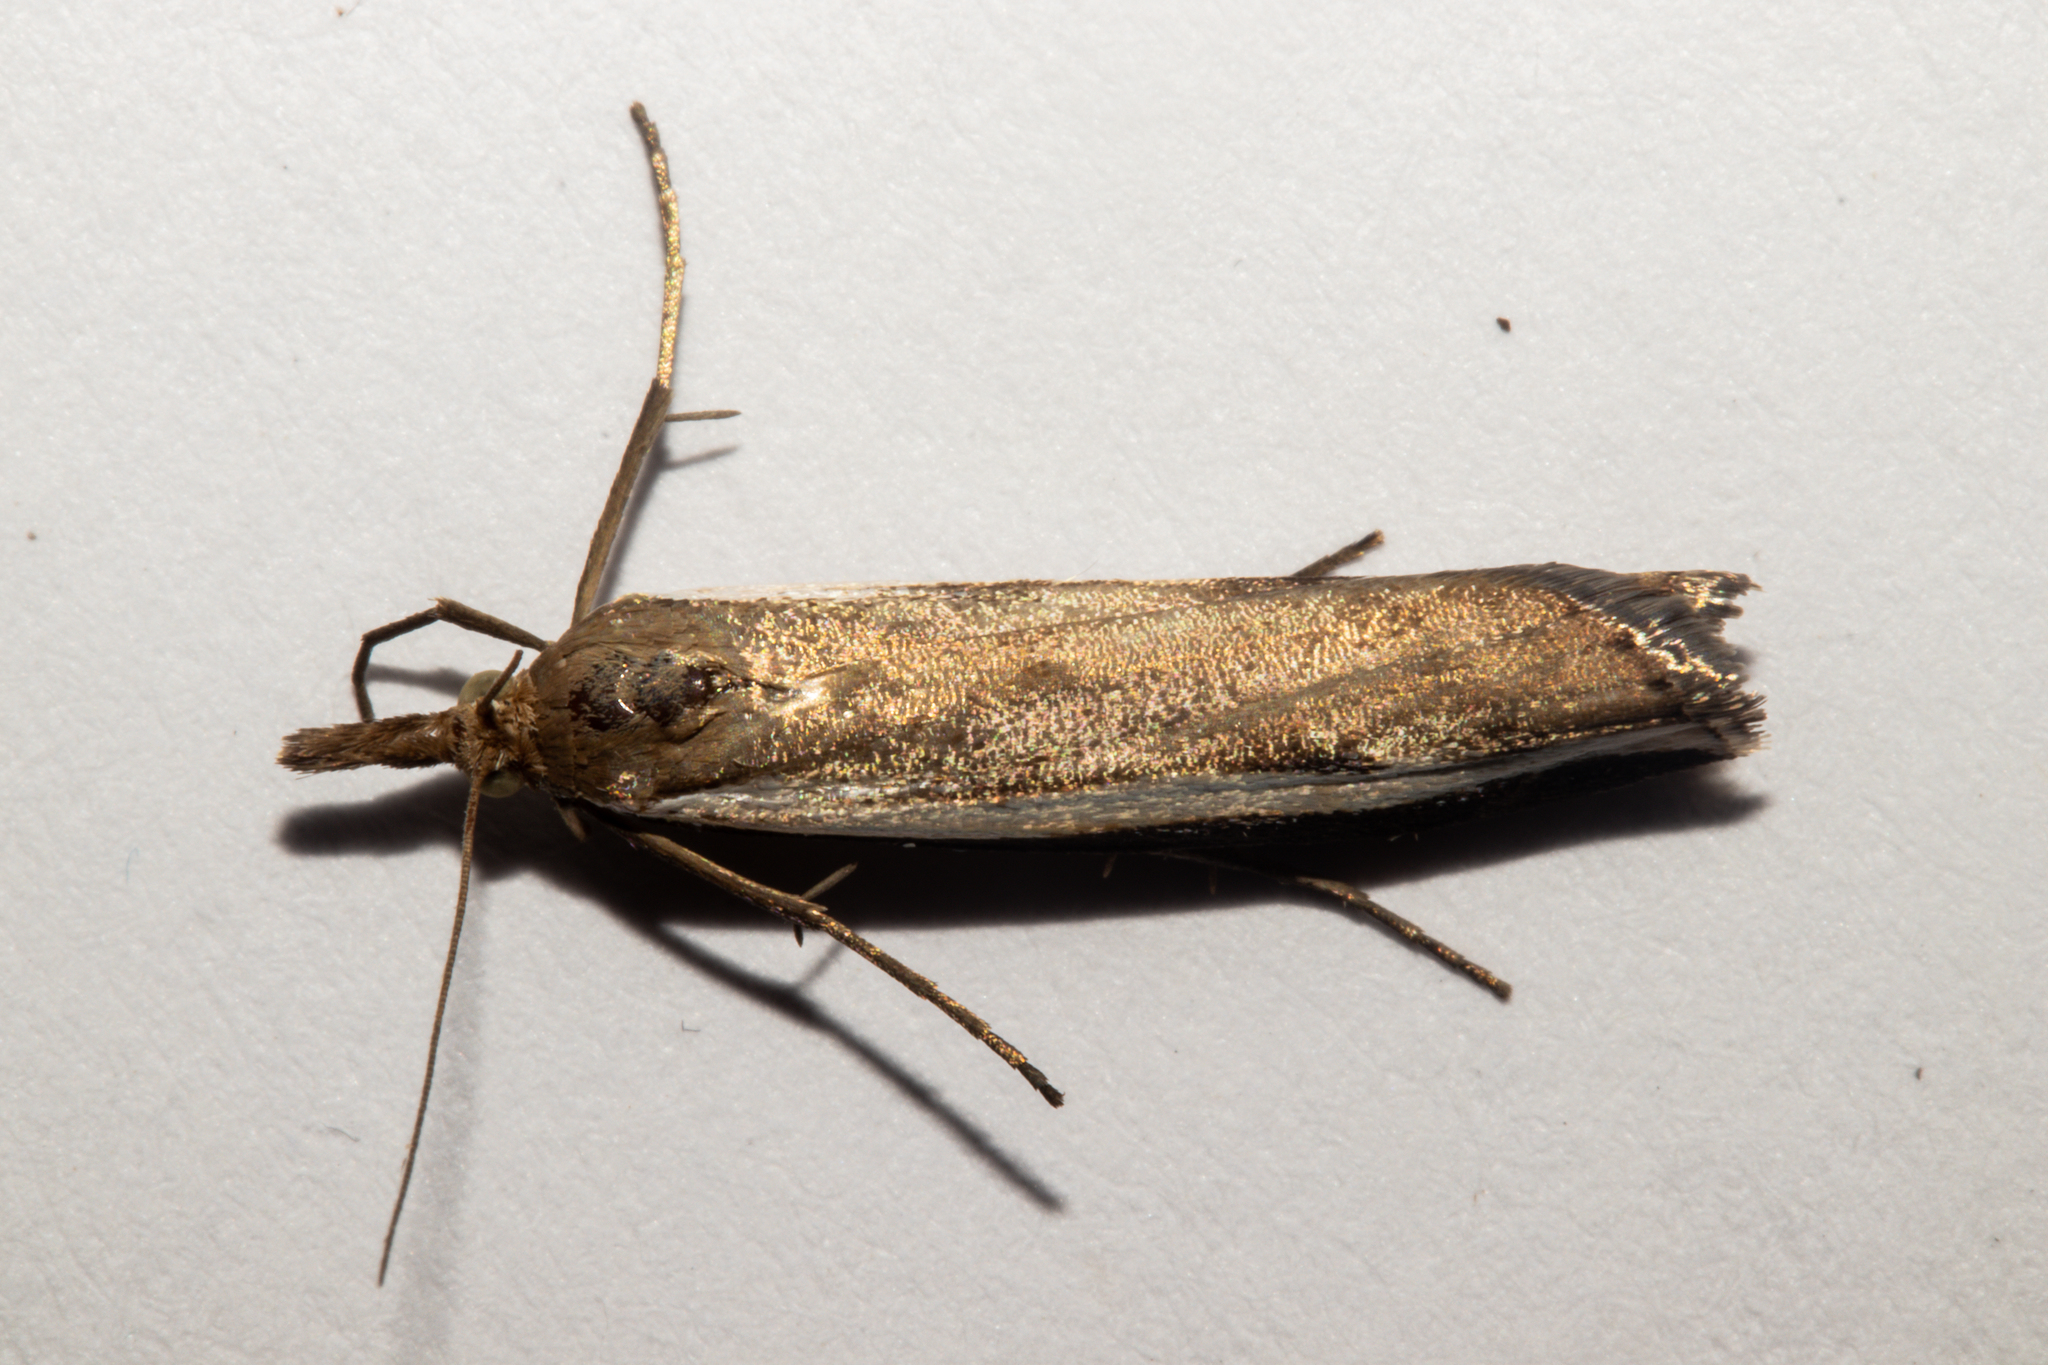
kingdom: Animalia
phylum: Arthropoda
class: Insecta
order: Lepidoptera
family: Crambidae
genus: Orocrambus
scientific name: Orocrambus flexuosellus
